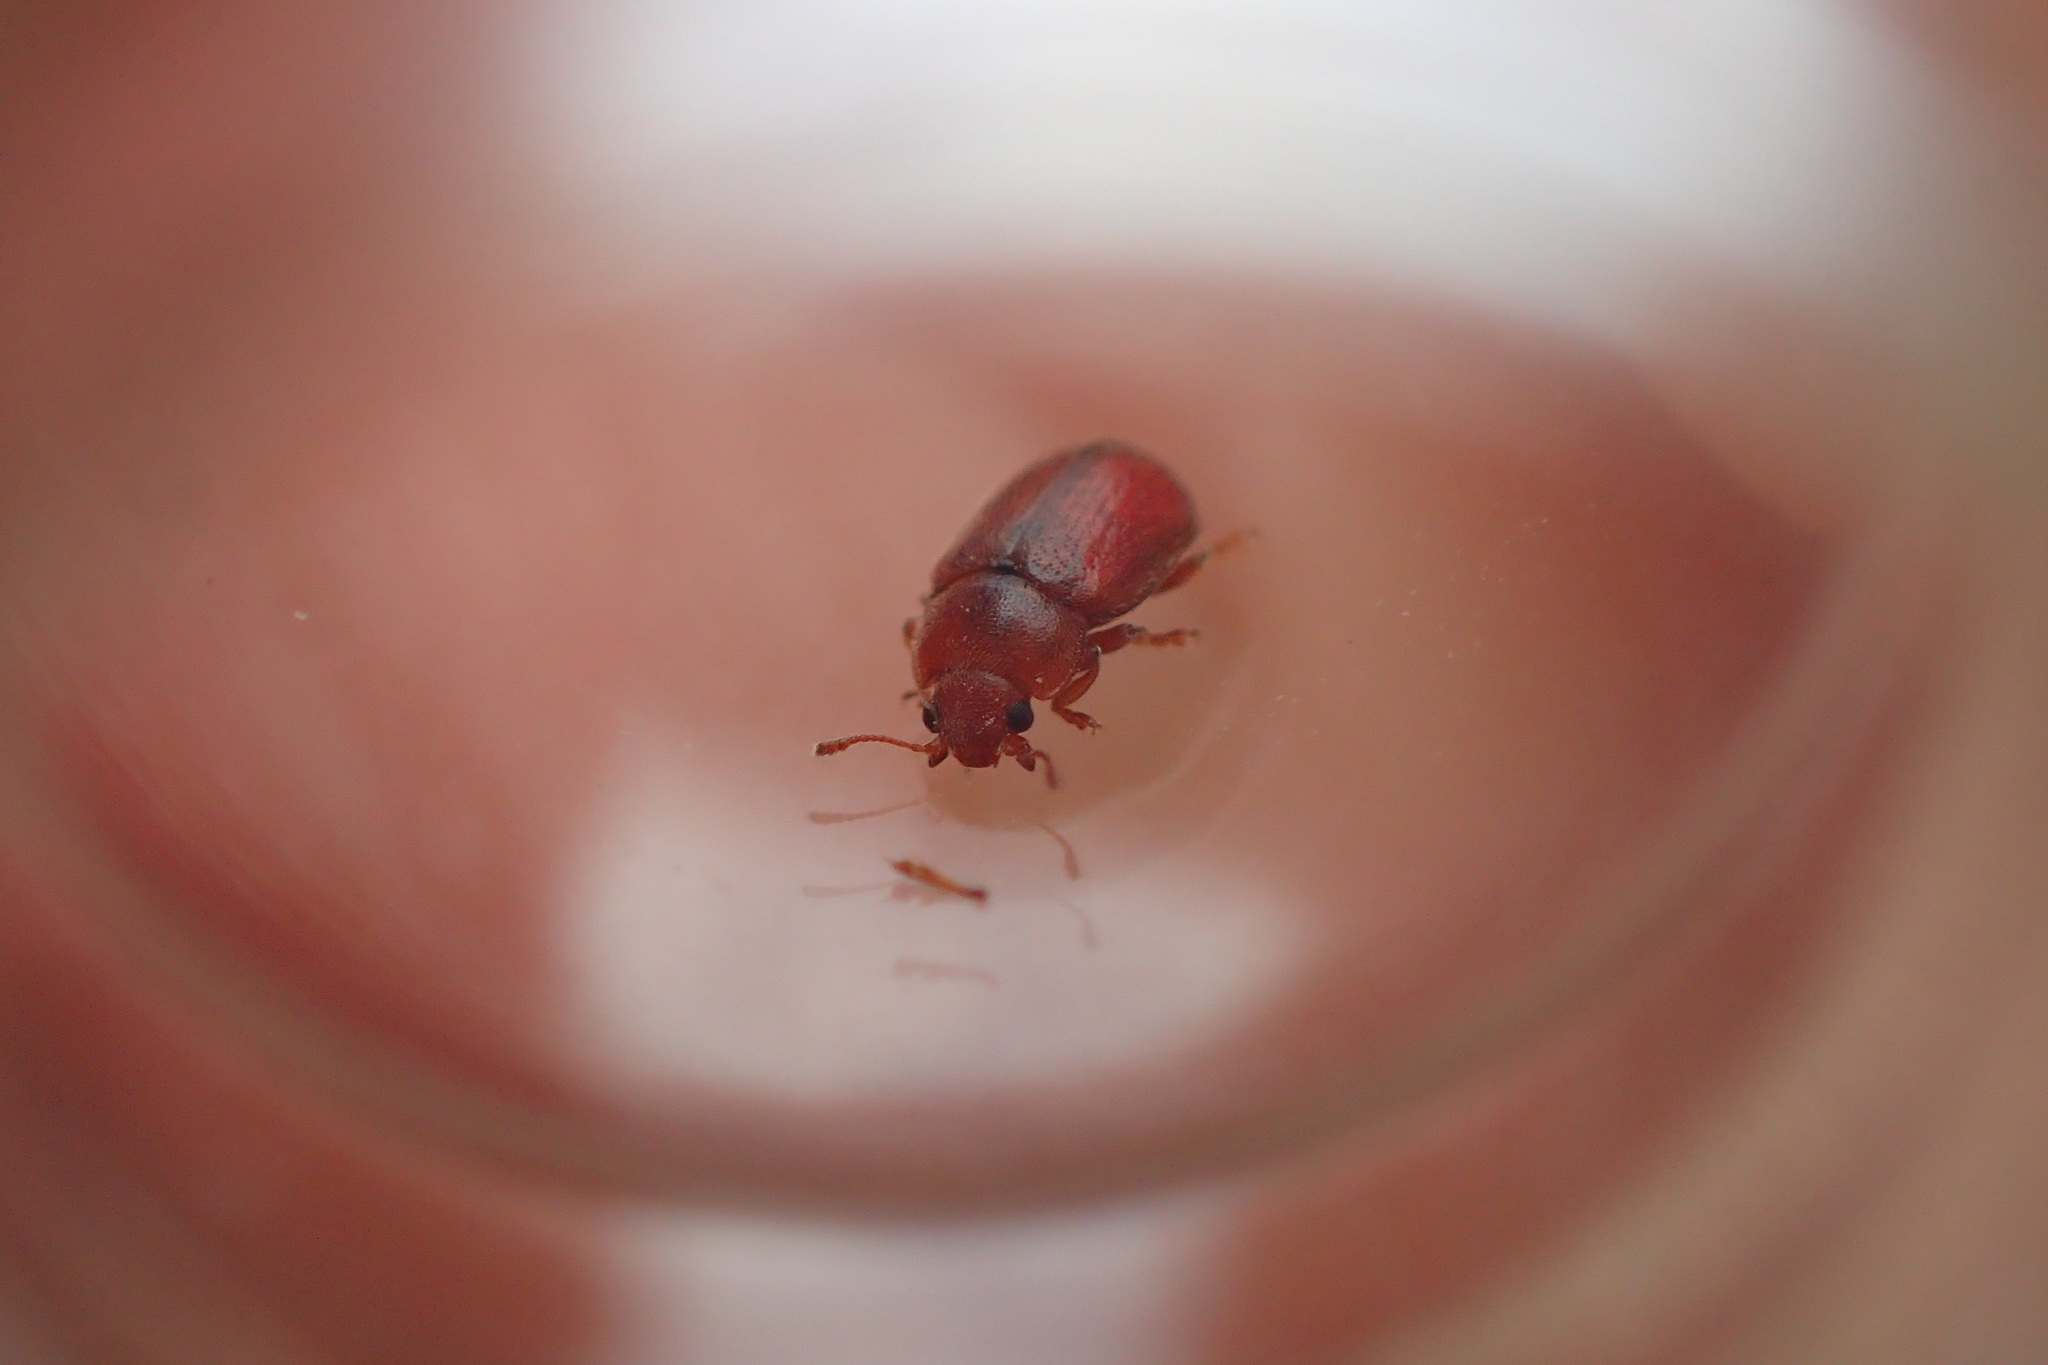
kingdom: Animalia
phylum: Arthropoda
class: Insecta
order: Coleoptera
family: Coccinellidae
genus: Coccidula
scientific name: Coccidula rufa
